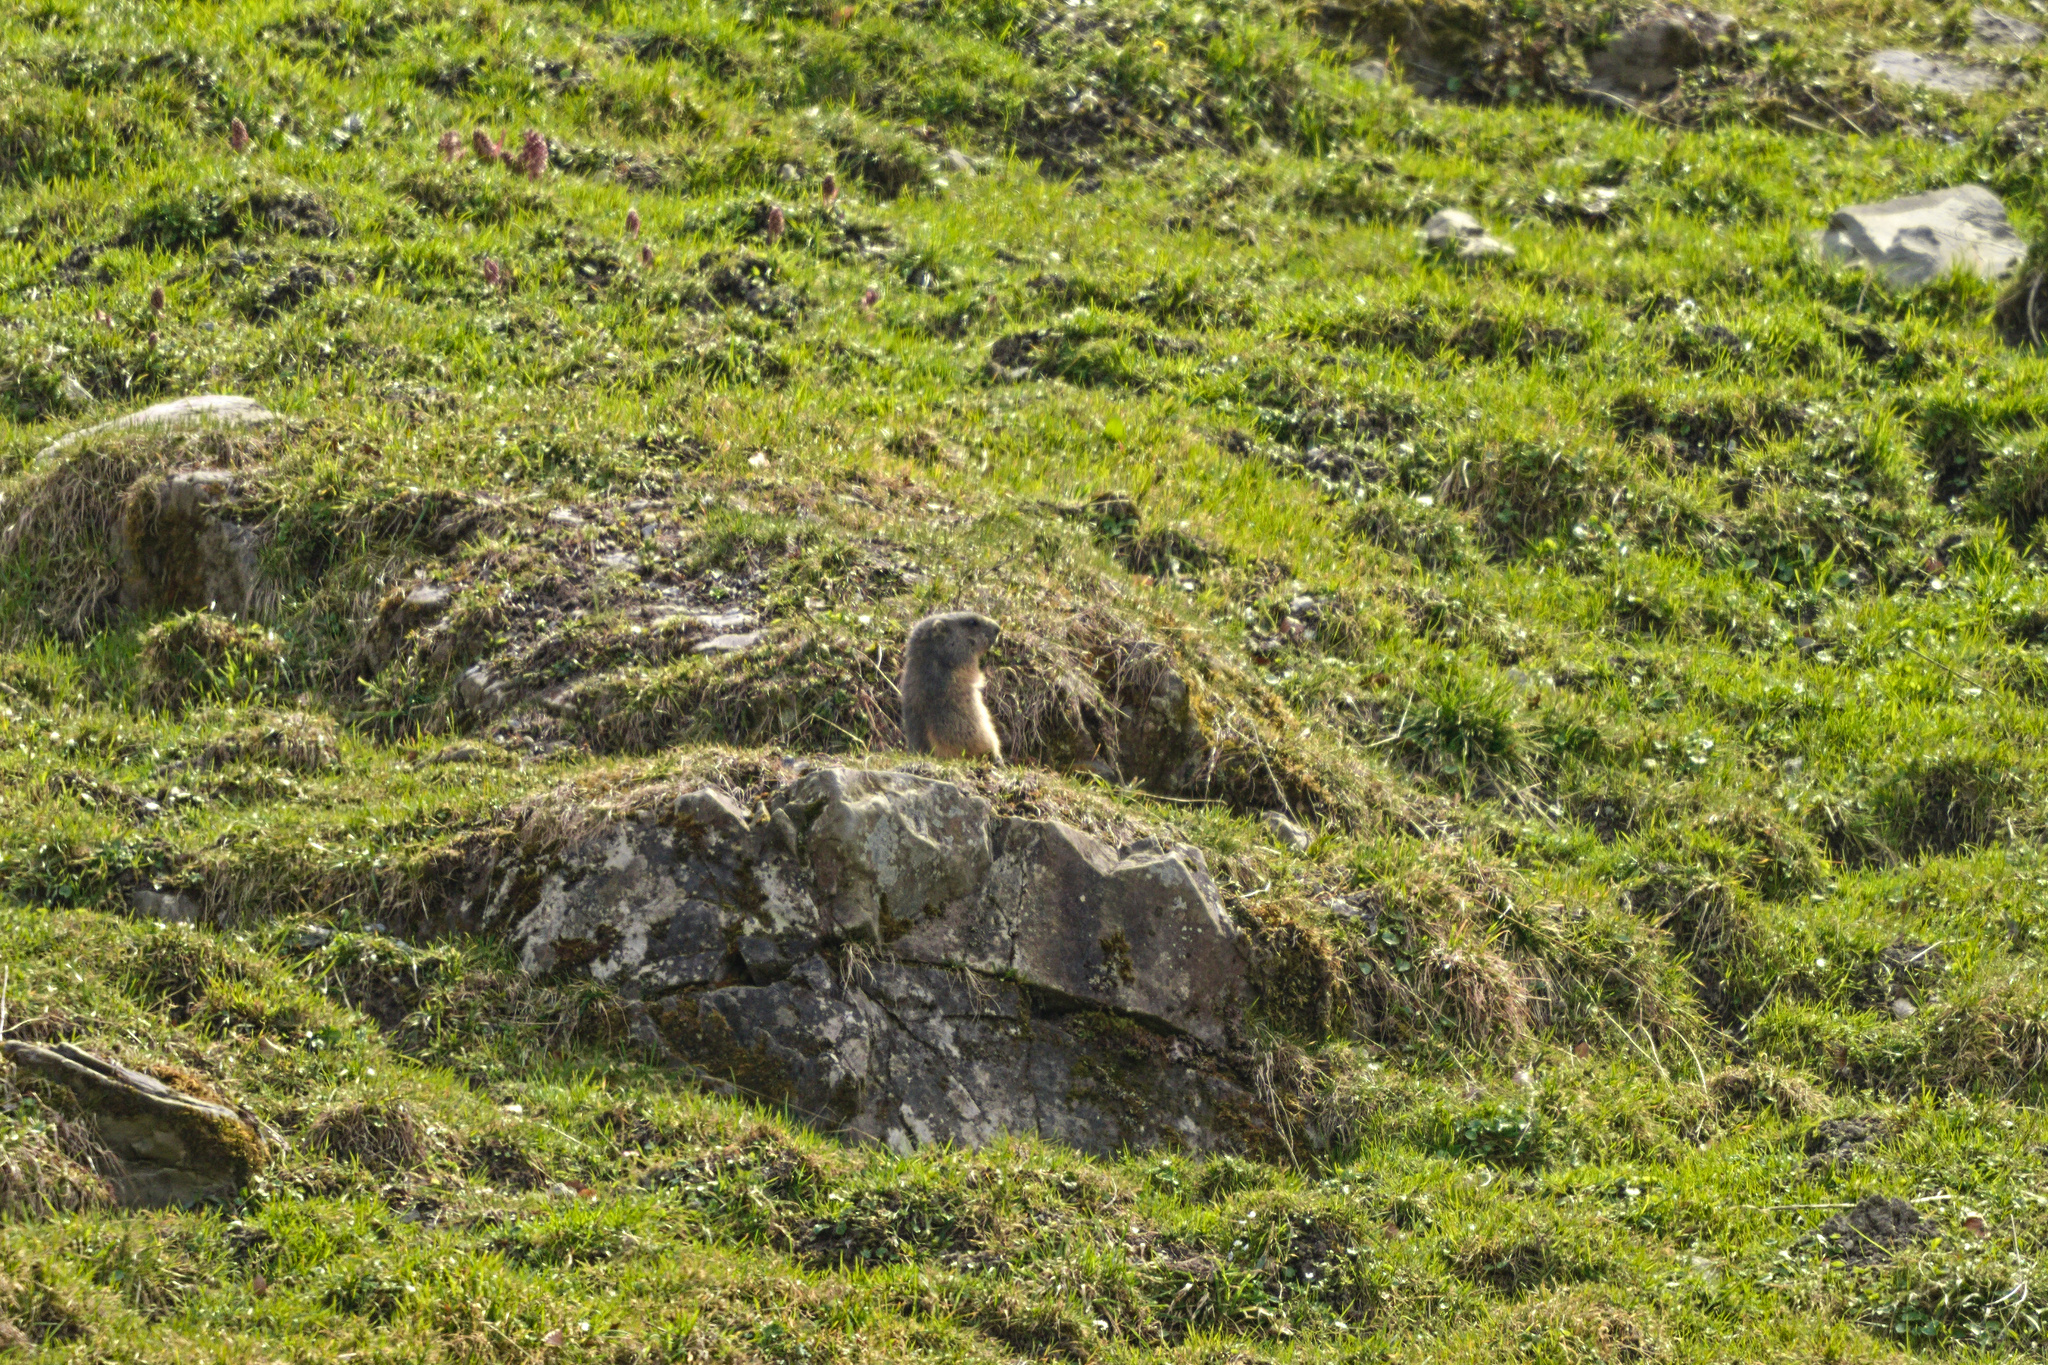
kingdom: Animalia
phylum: Chordata
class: Mammalia
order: Rodentia
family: Sciuridae
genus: Marmota
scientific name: Marmota marmota
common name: Alpine marmot
